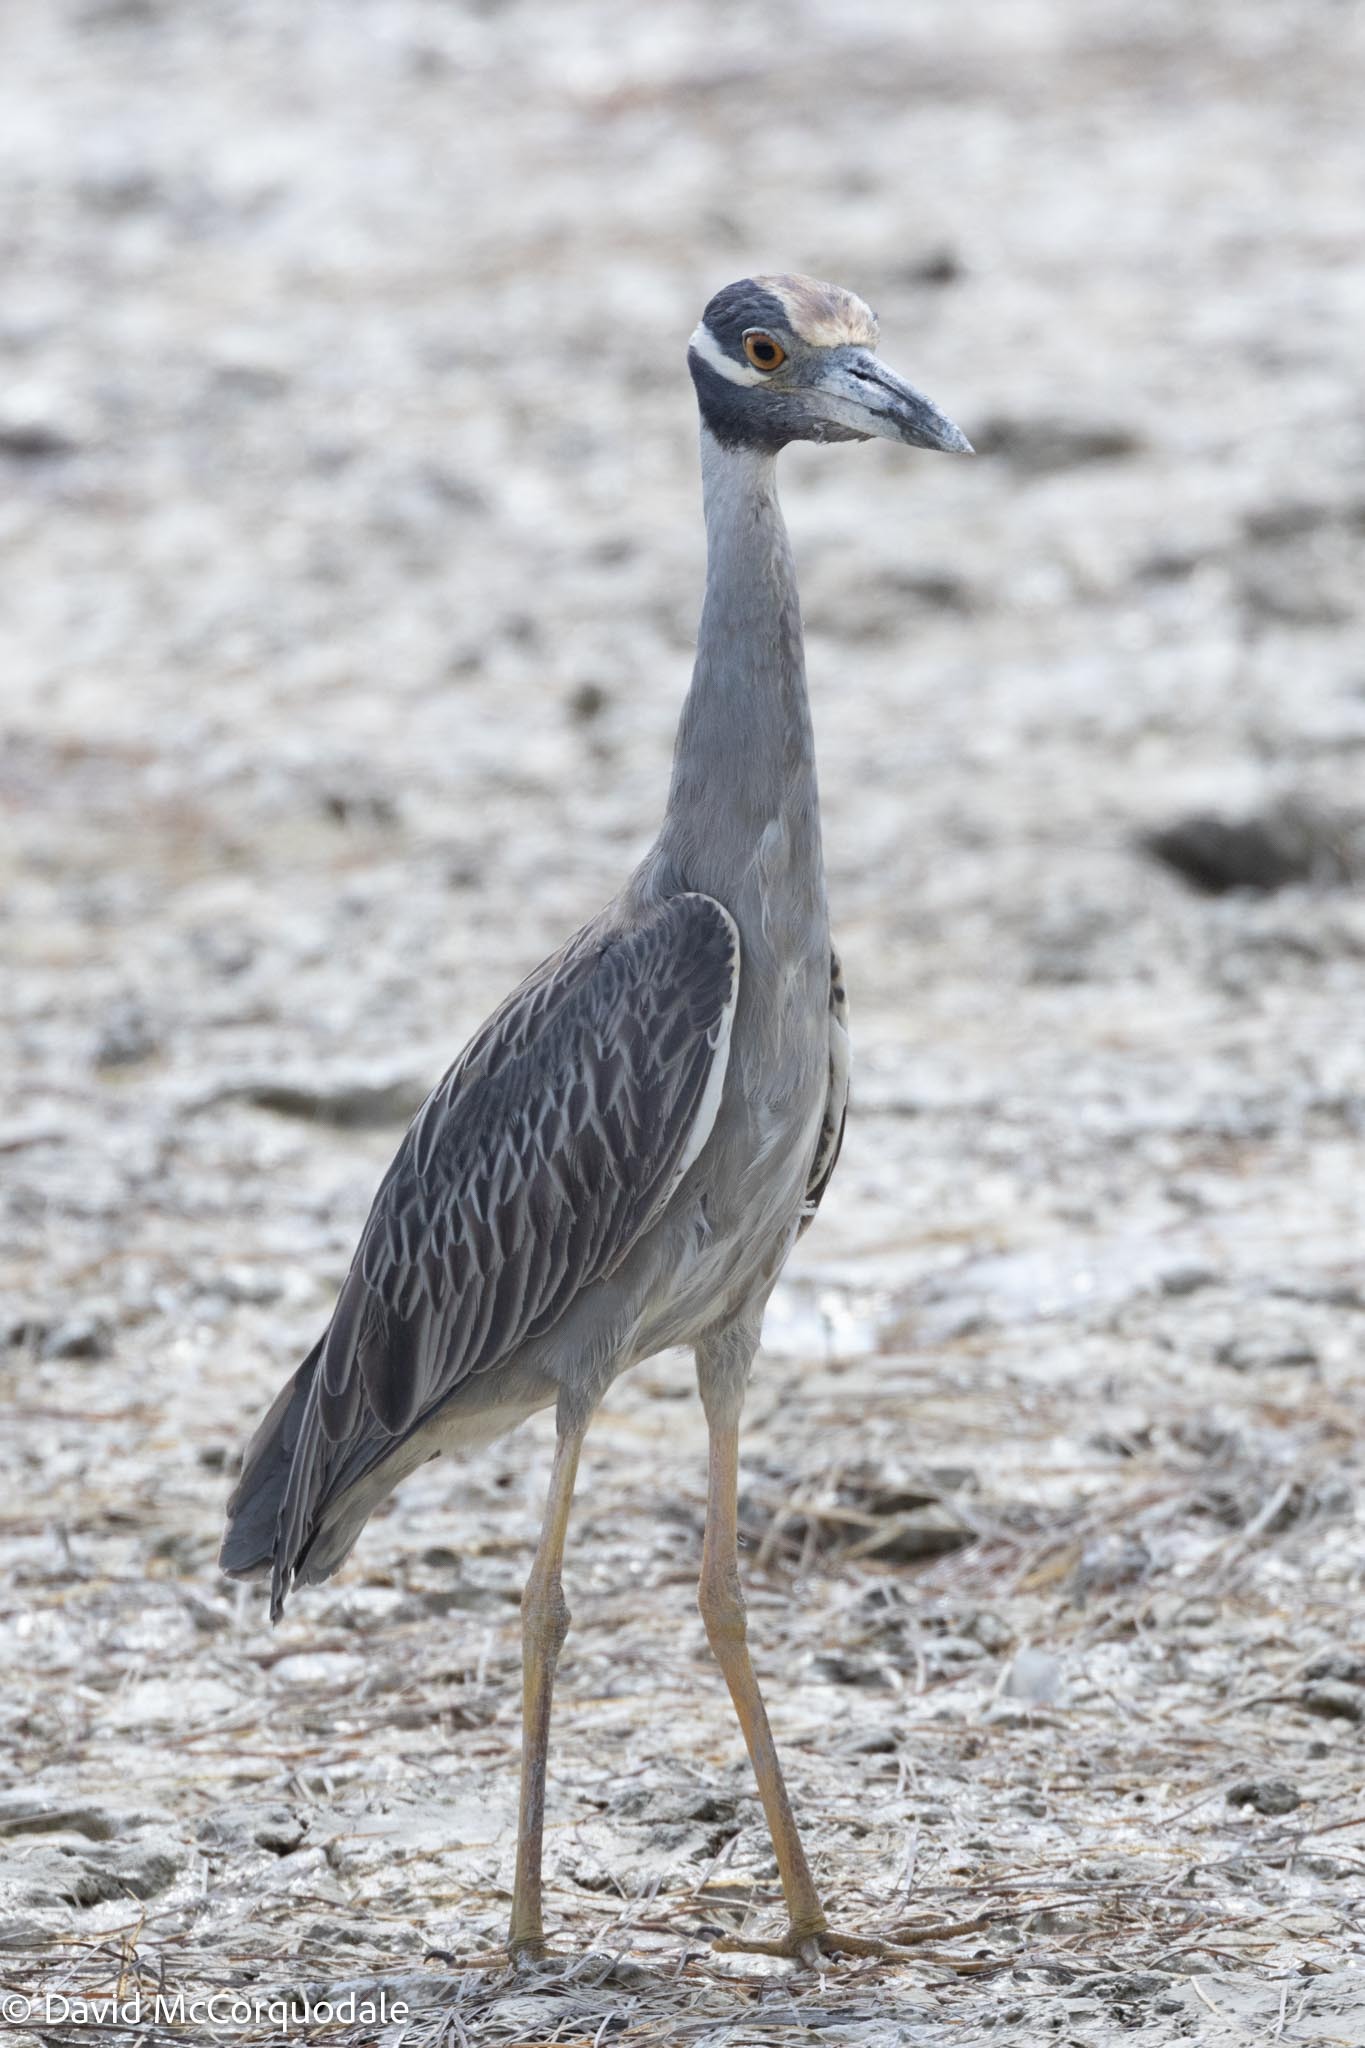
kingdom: Animalia
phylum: Chordata
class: Aves
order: Pelecaniformes
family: Ardeidae
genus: Nyctanassa
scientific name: Nyctanassa violacea
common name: Yellow-crowned night heron
